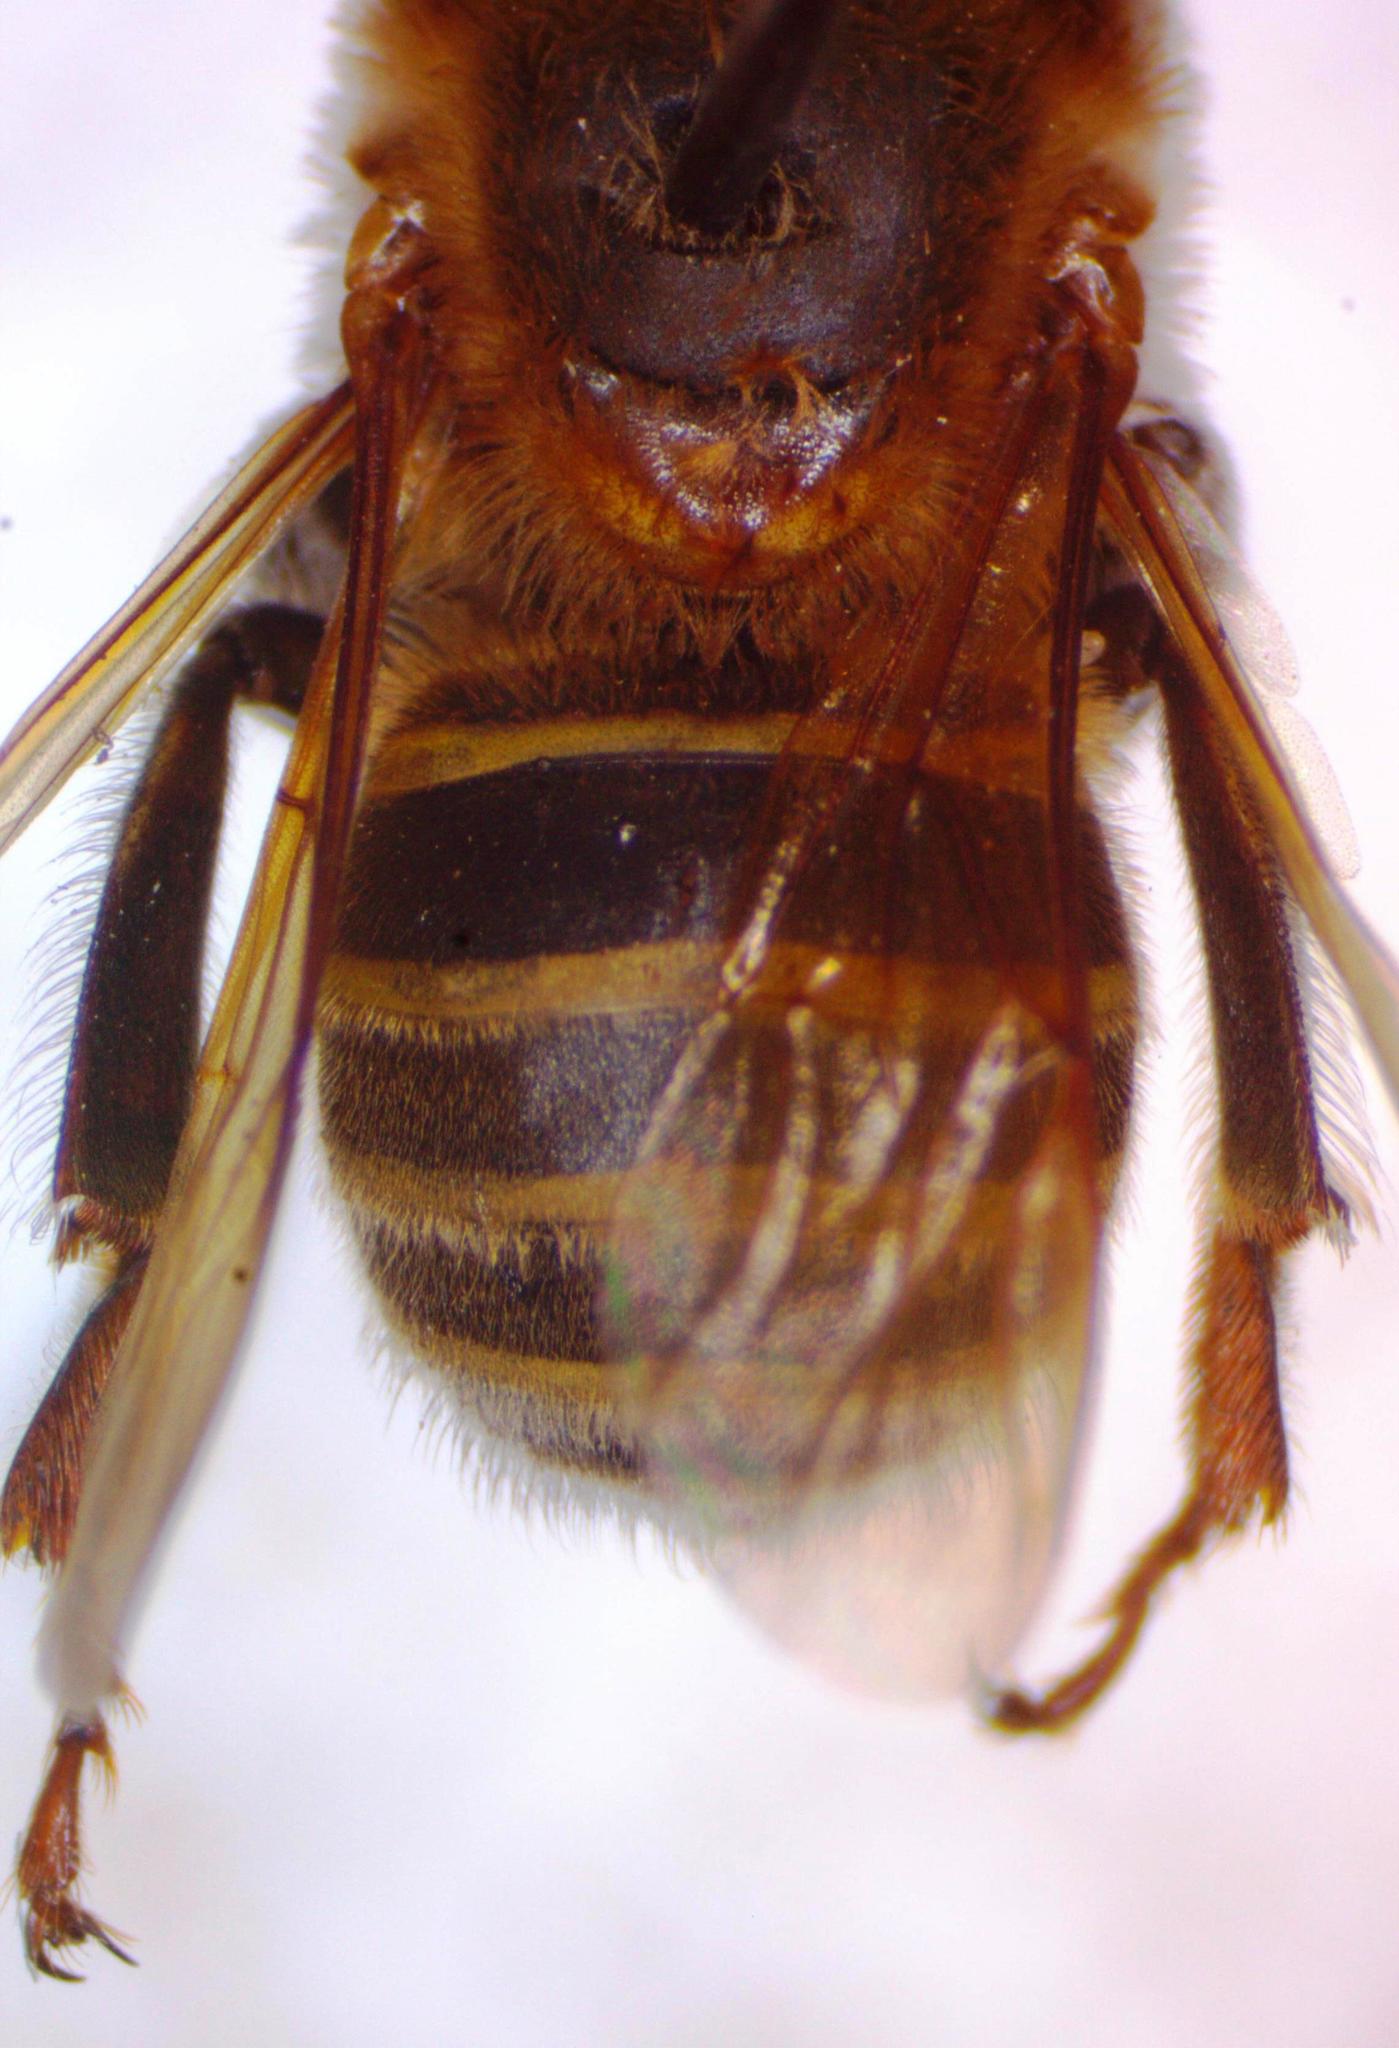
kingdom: Animalia
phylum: Arthropoda
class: Insecta
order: Hymenoptera
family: Apidae
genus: Melipona
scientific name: Melipona beecheii
